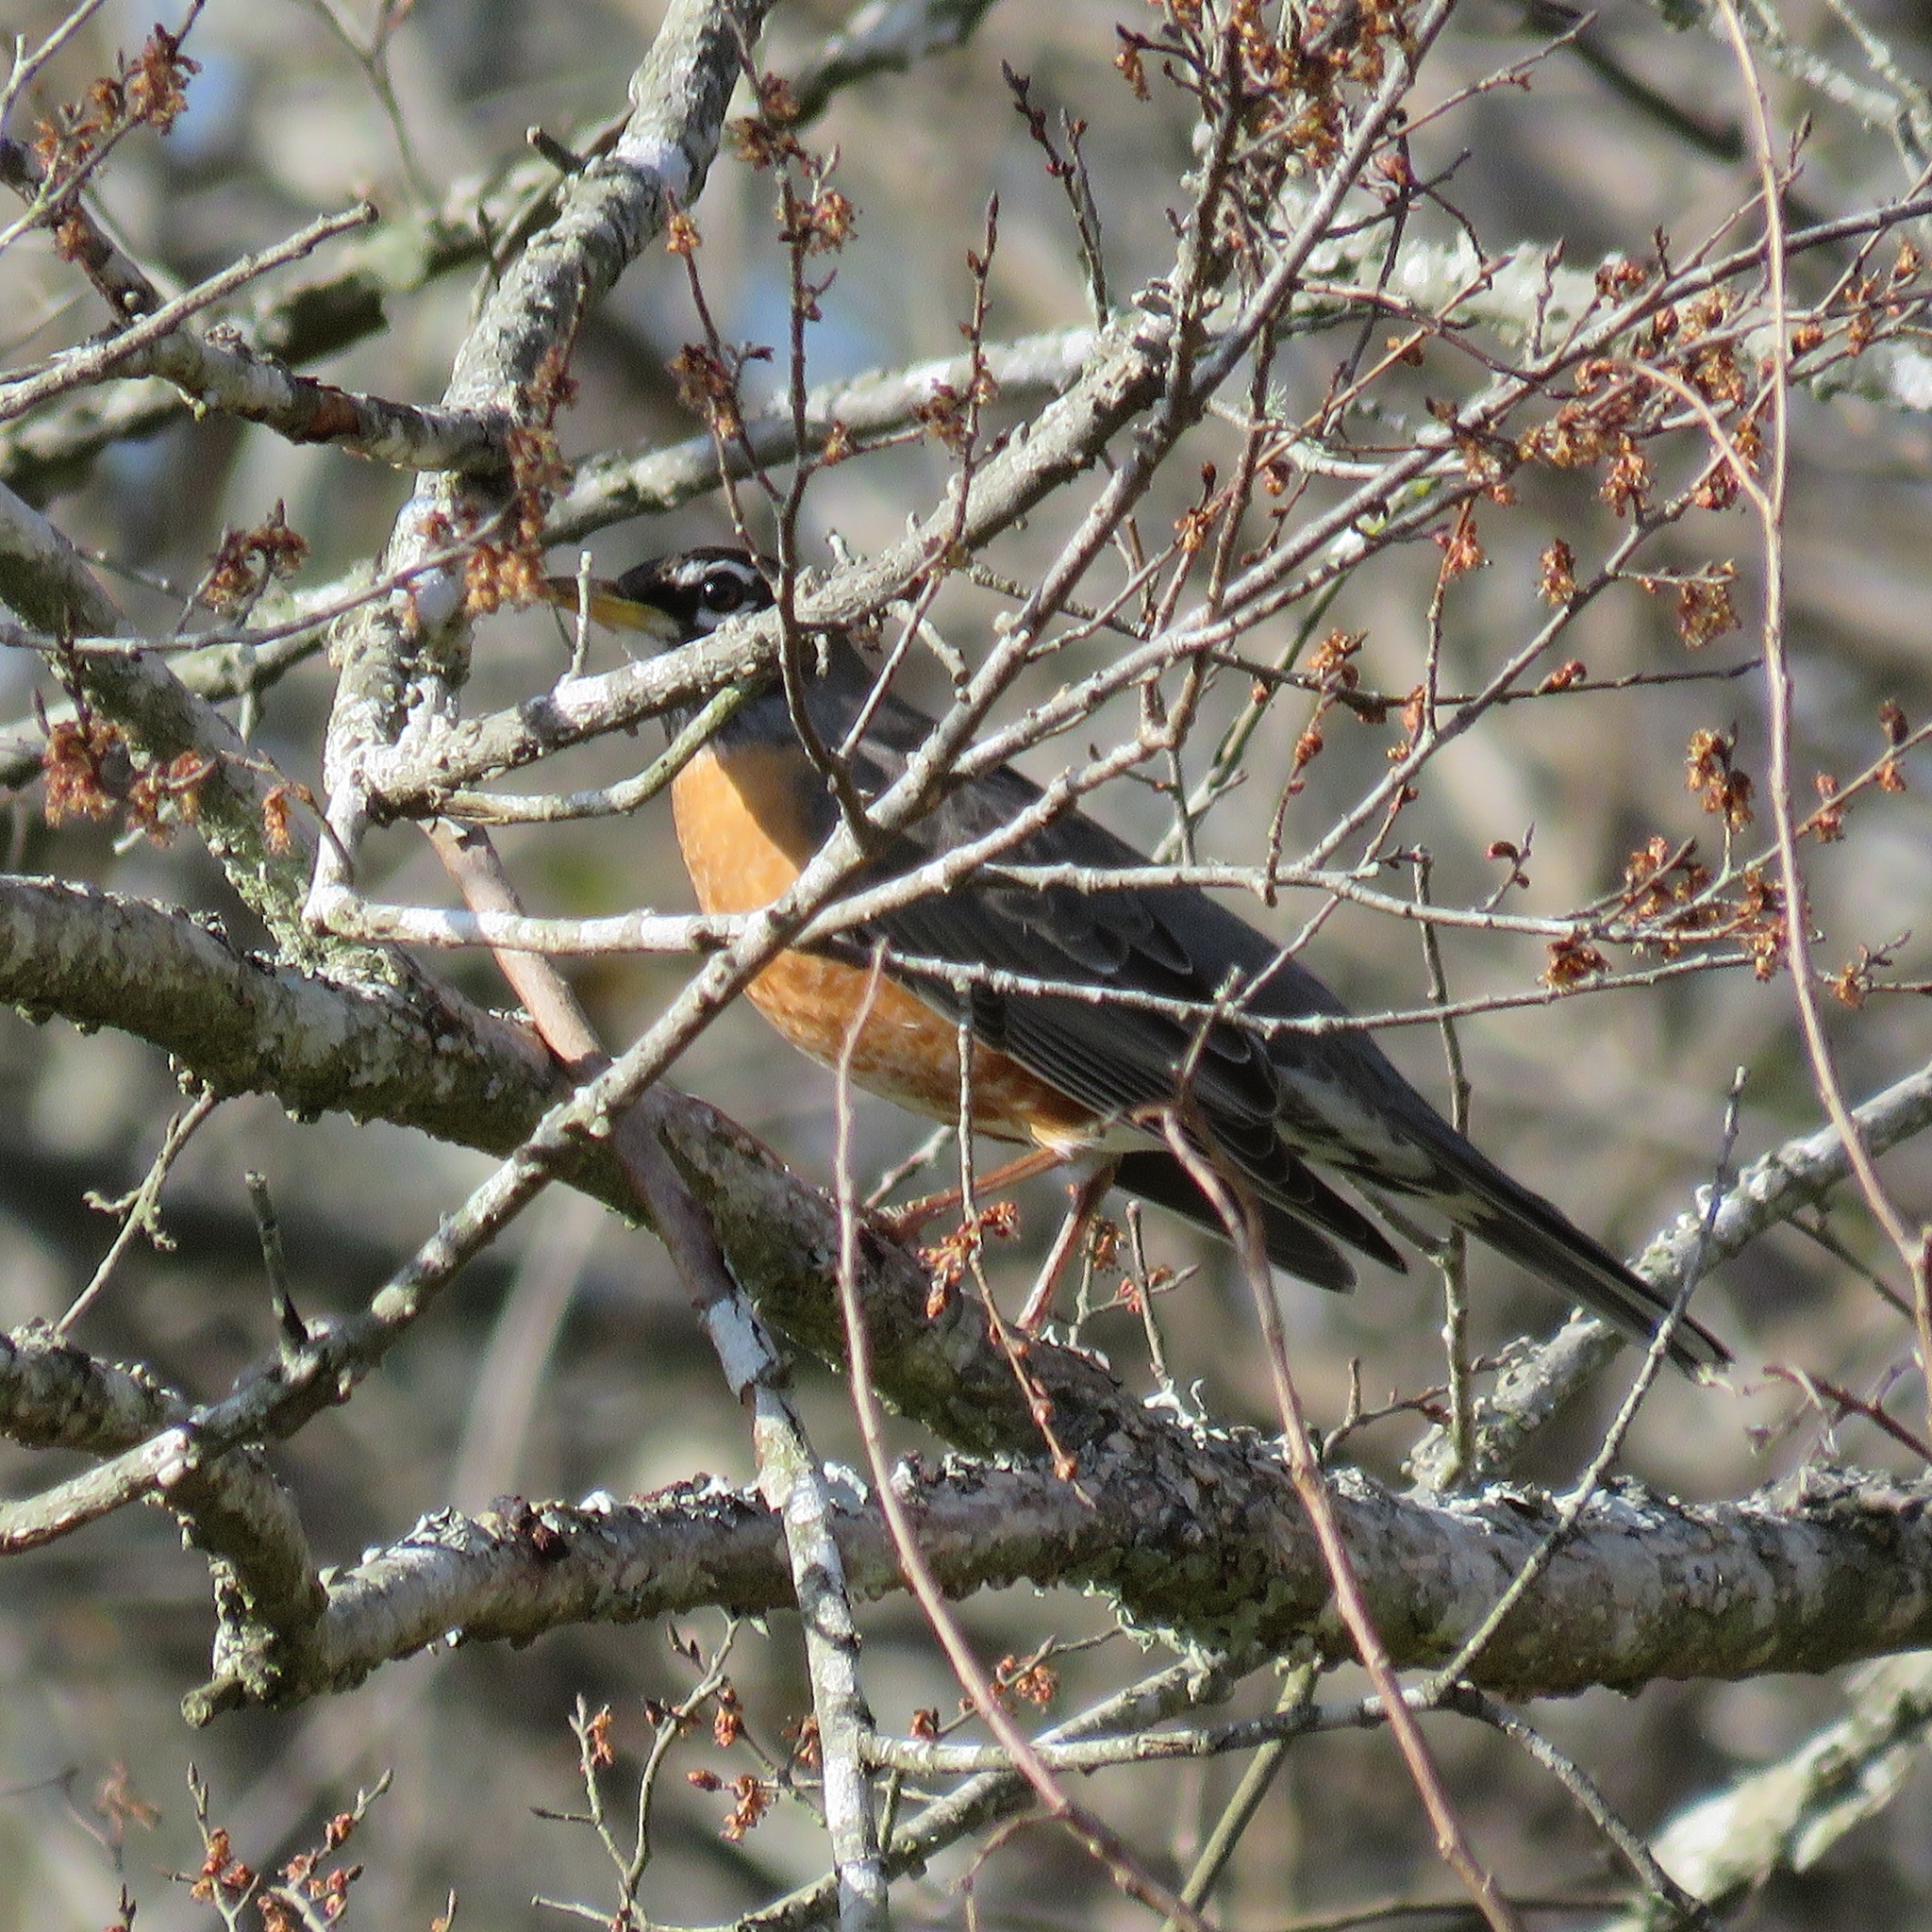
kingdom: Animalia
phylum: Chordata
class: Aves
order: Passeriformes
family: Turdidae
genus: Turdus
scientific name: Turdus migratorius
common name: American robin
